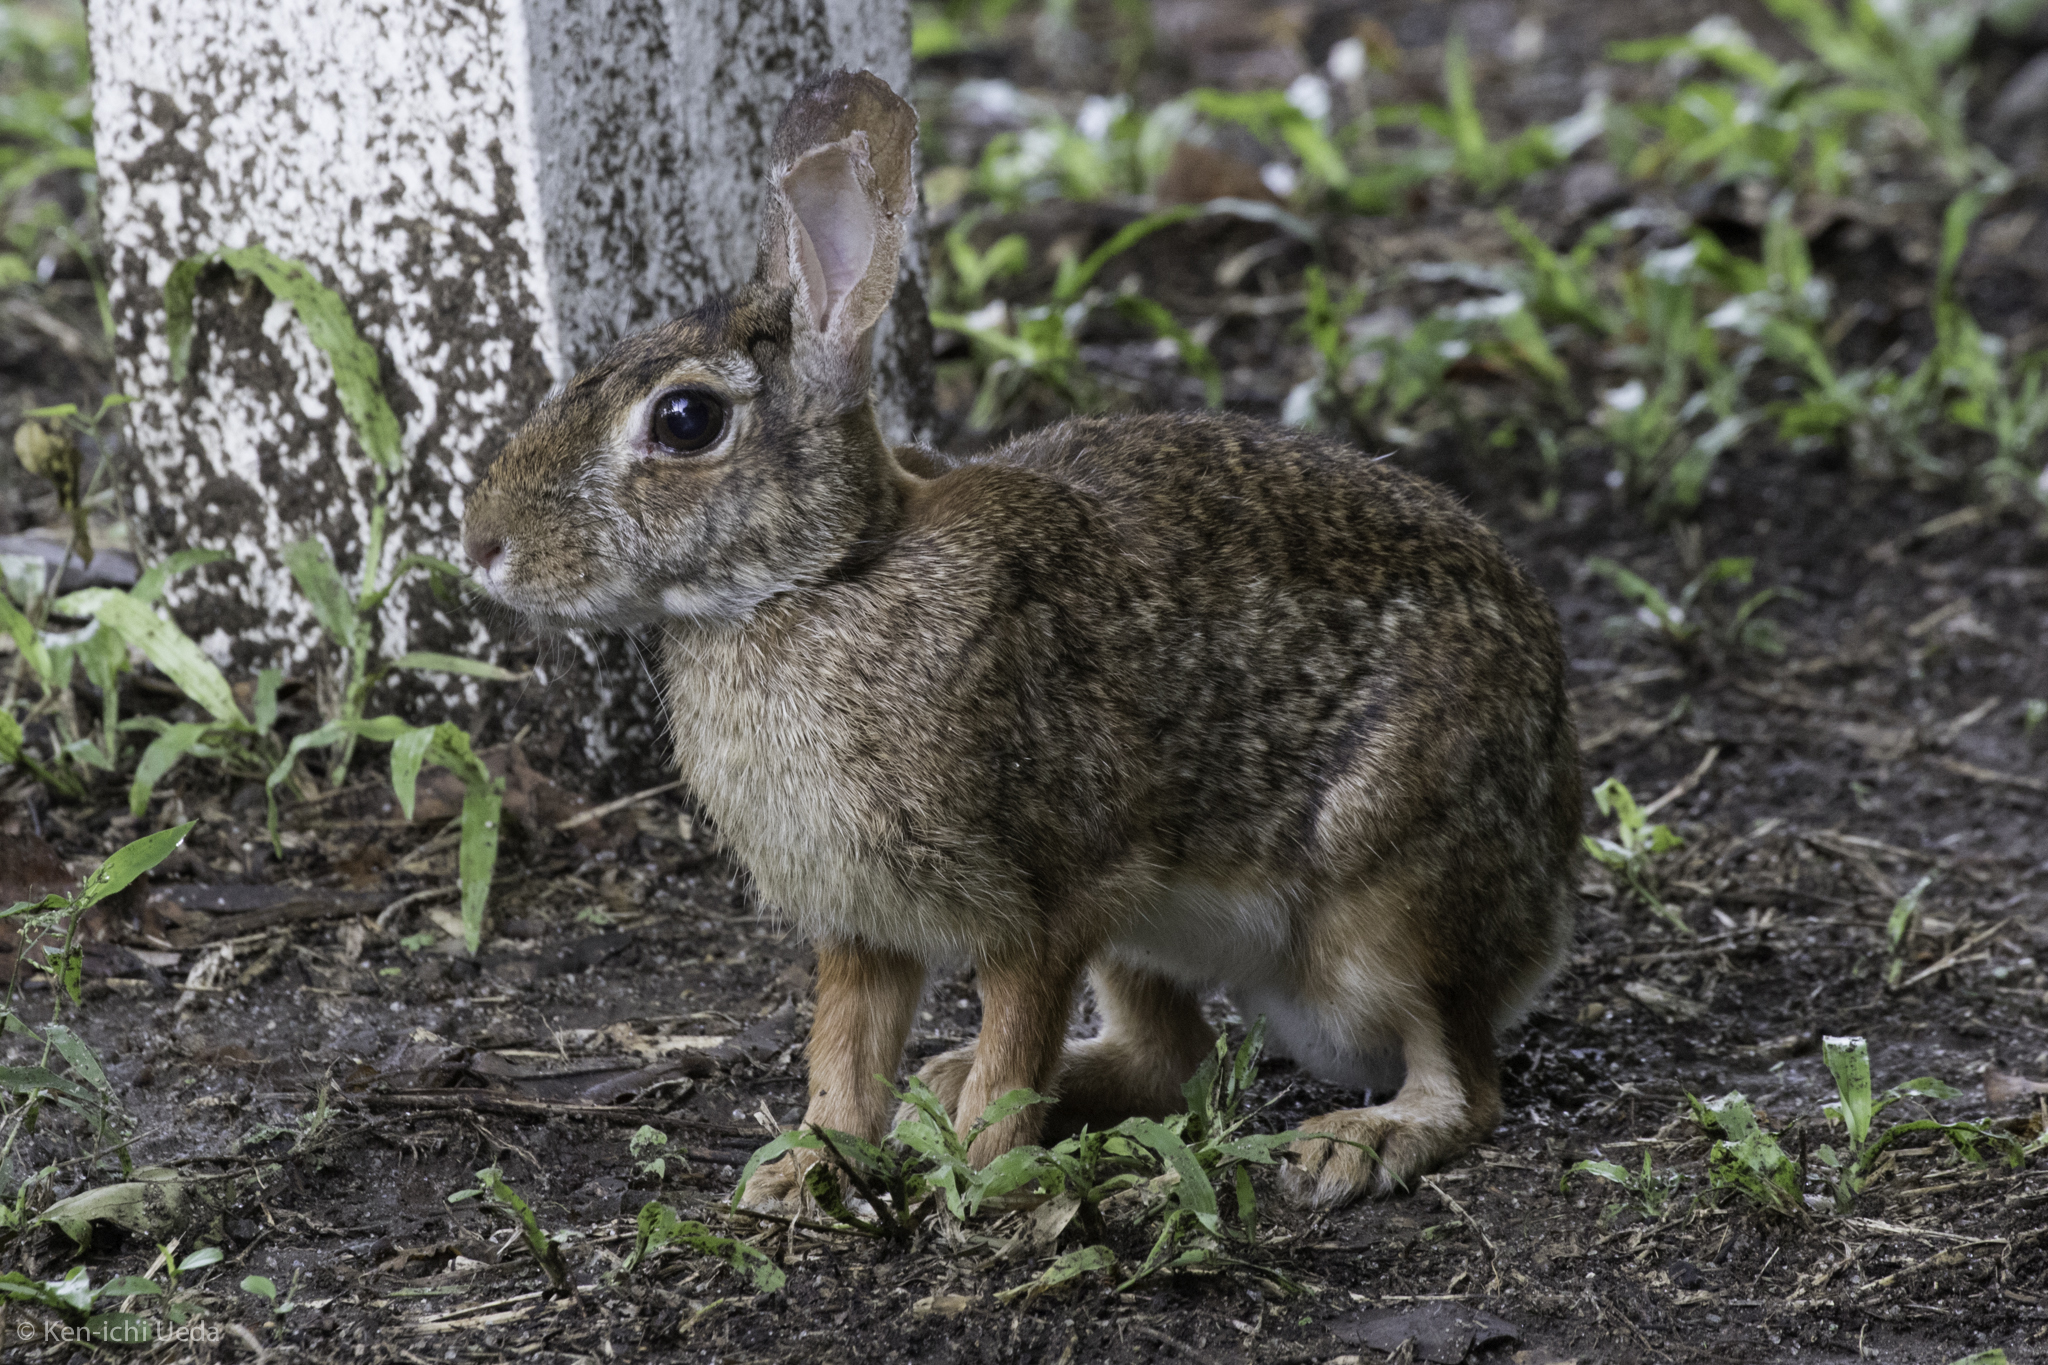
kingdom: Animalia
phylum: Chordata
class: Mammalia
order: Lagomorpha
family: Leporidae
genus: Sylvilagus
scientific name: Sylvilagus floridanus
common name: Eastern cottontail
